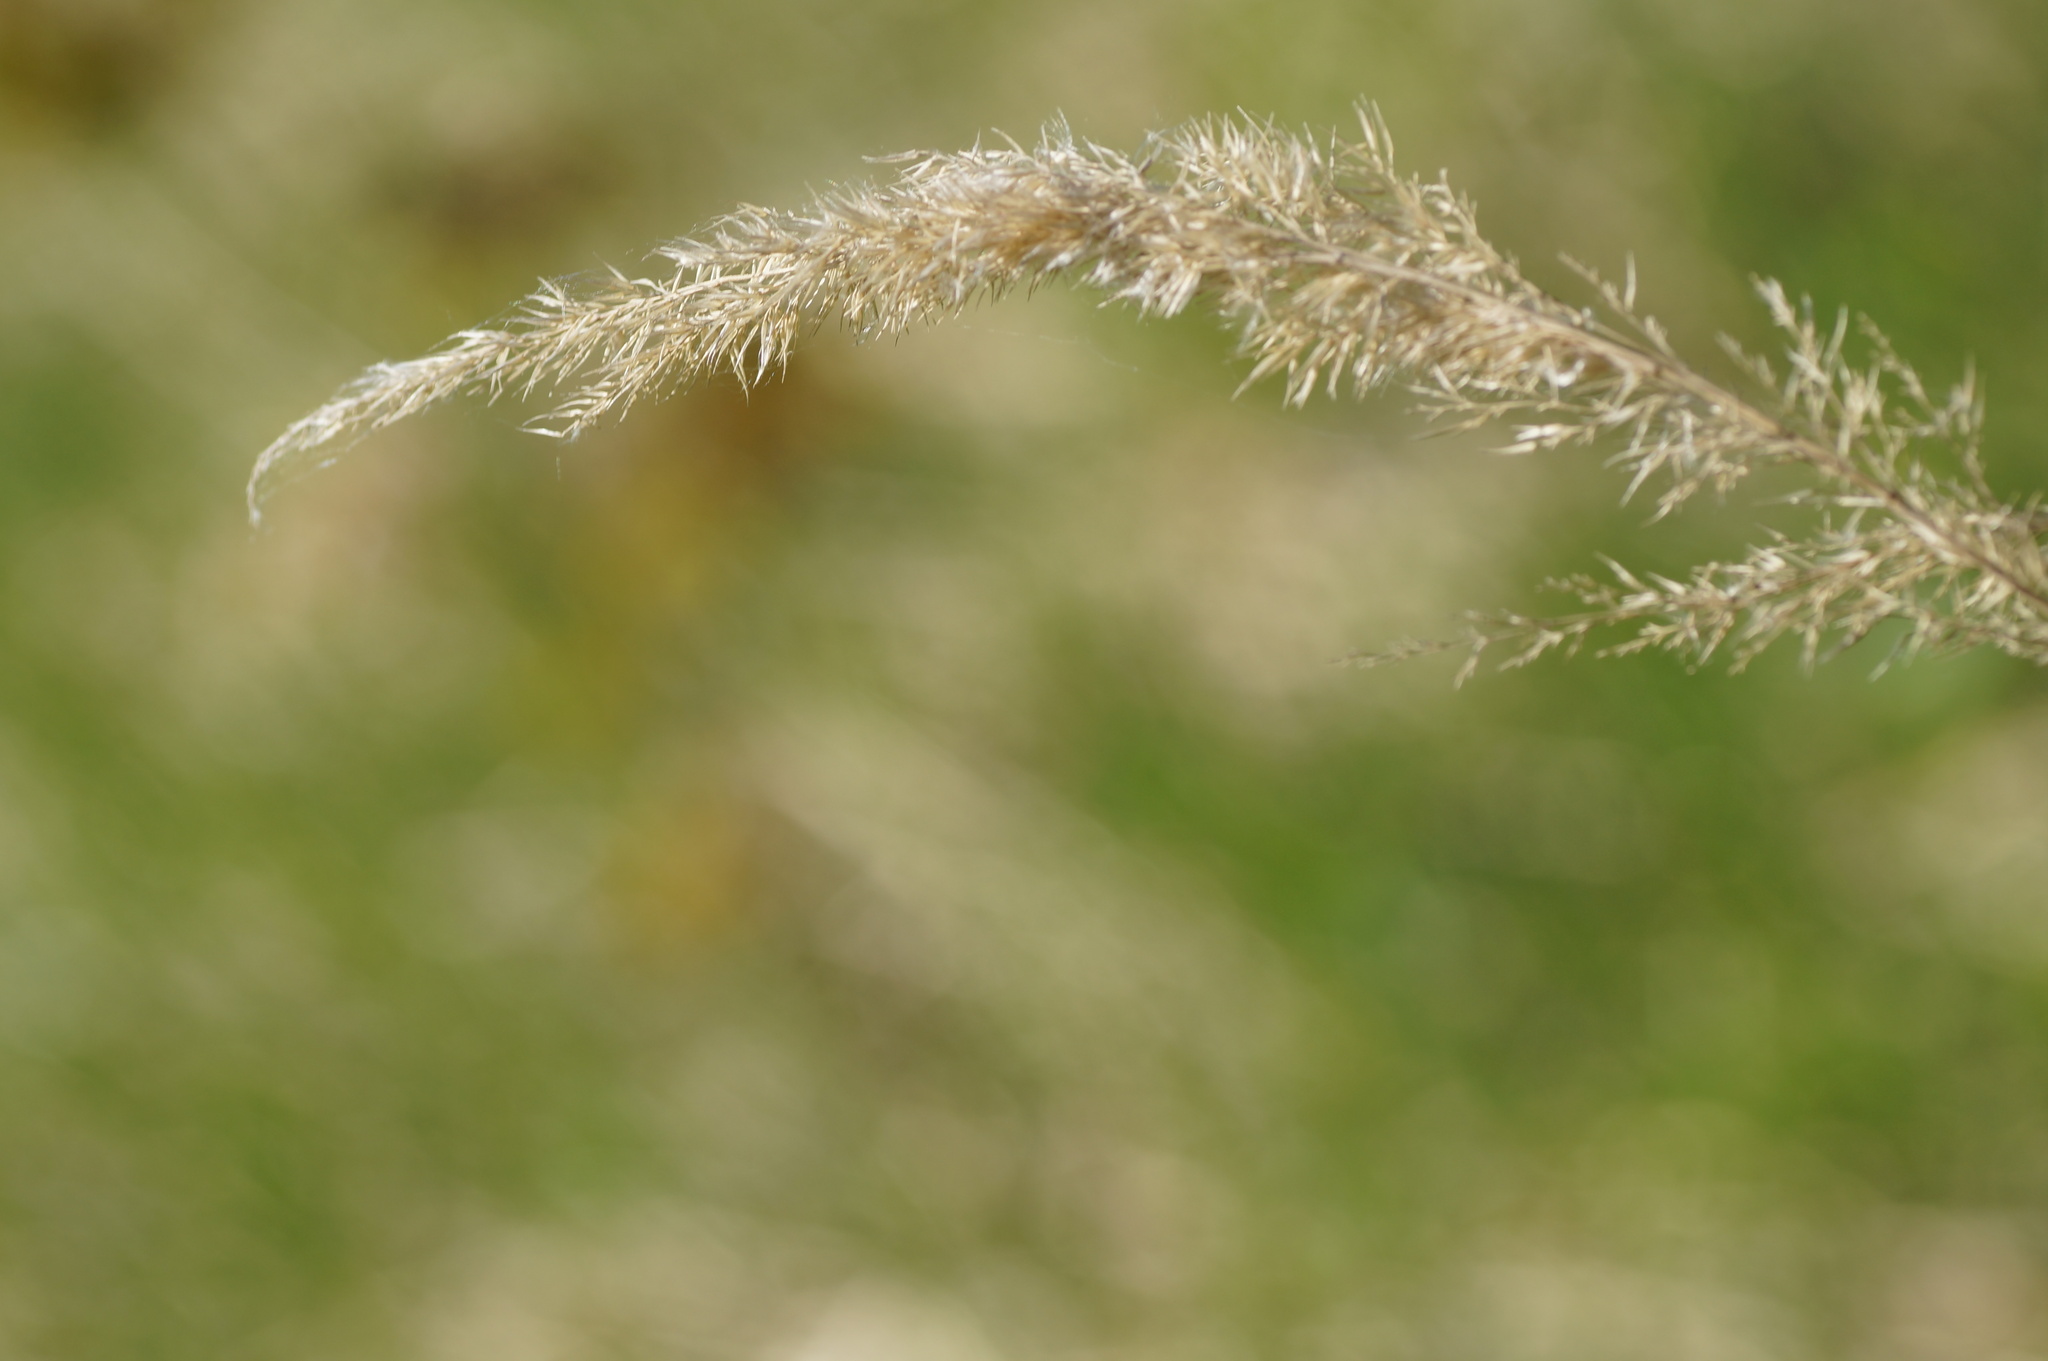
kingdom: Plantae
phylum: Tracheophyta
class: Liliopsida
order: Poales
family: Poaceae
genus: Calamagrostis
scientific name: Calamagrostis epigejos
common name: Wood small-reed
